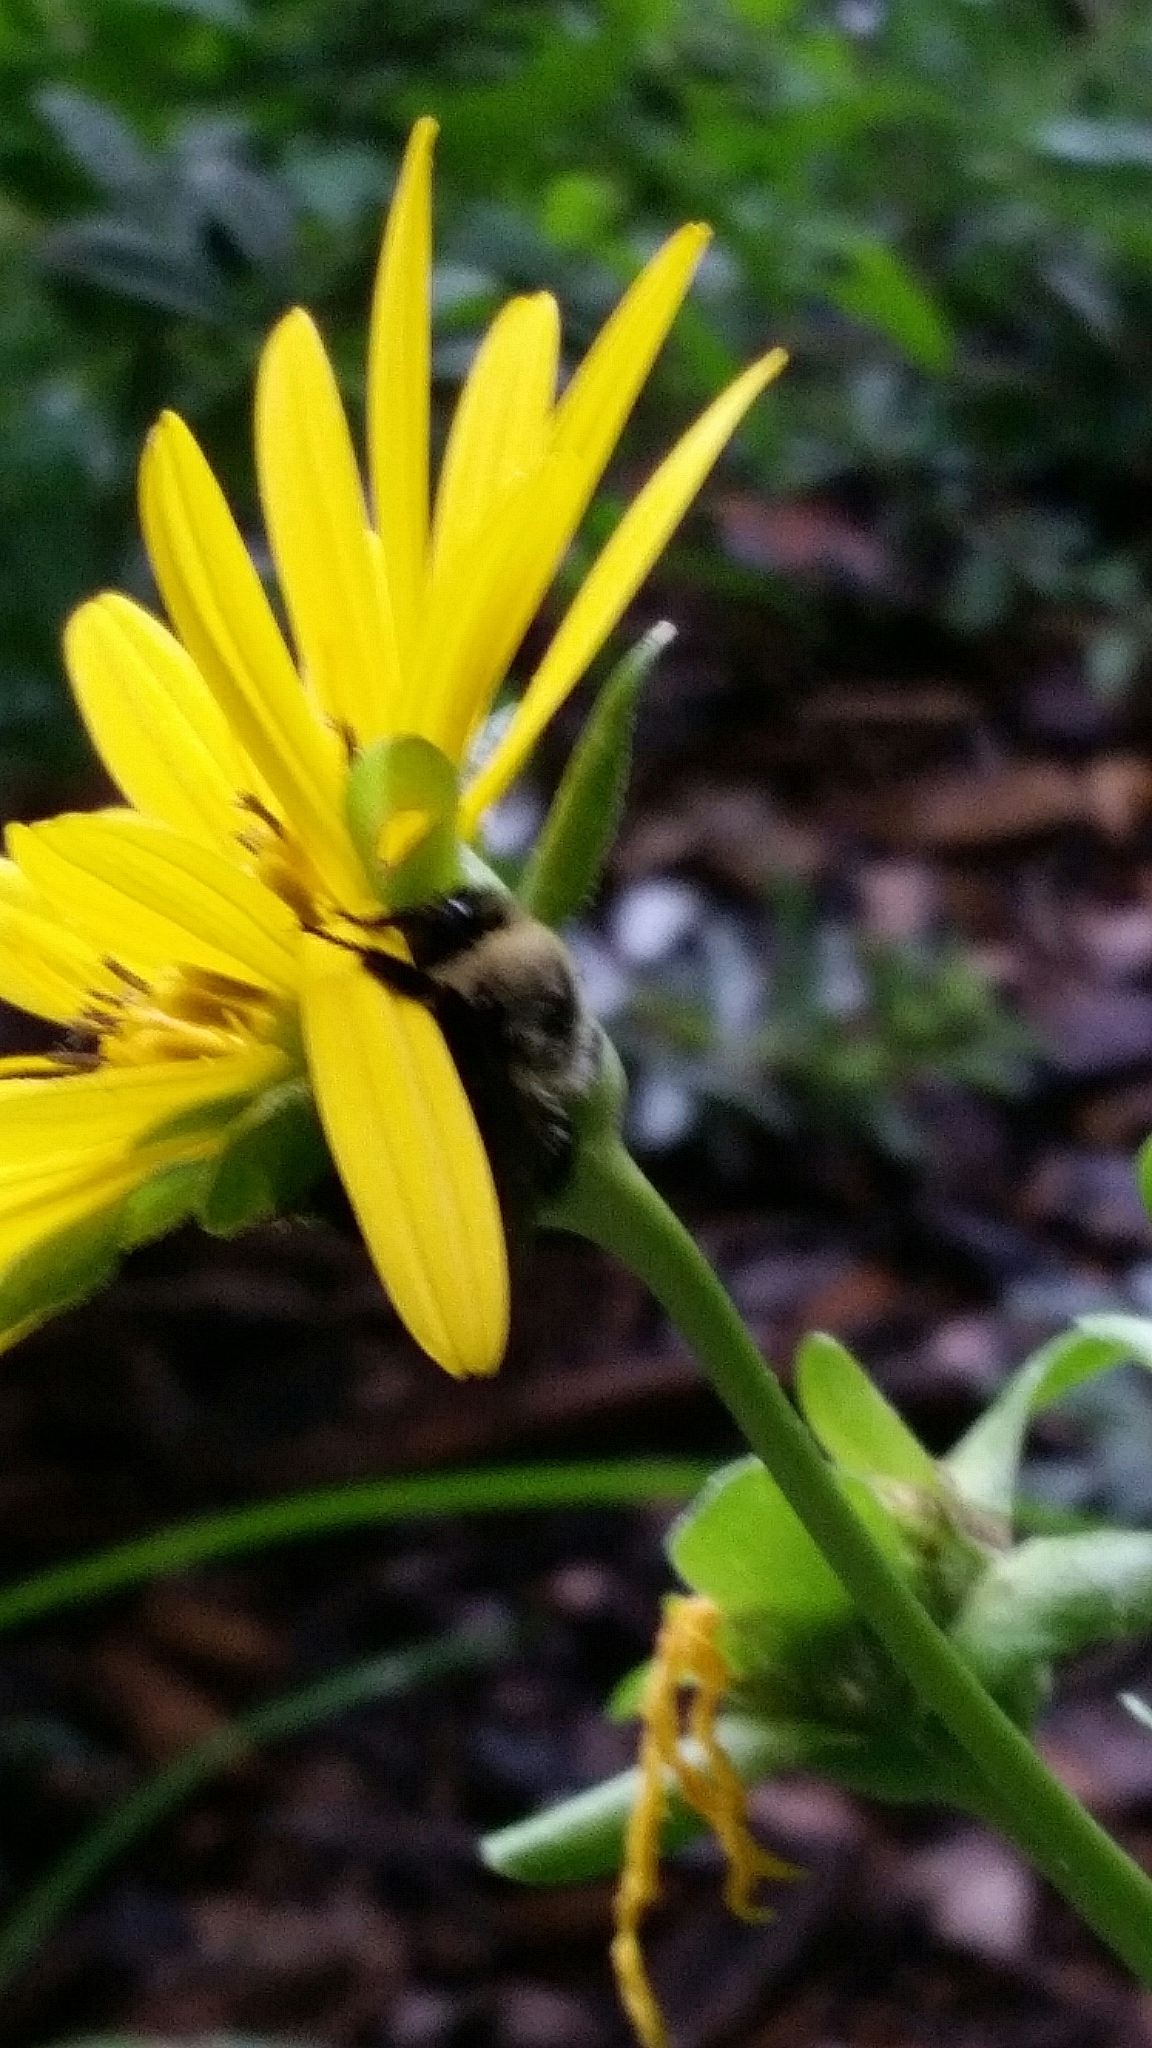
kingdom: Animalia
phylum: Arthropoda
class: Insecta
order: Hymenoptera
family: Apidae
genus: Bombus
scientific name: Bombus impatiens
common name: Common eastern bumble bee
